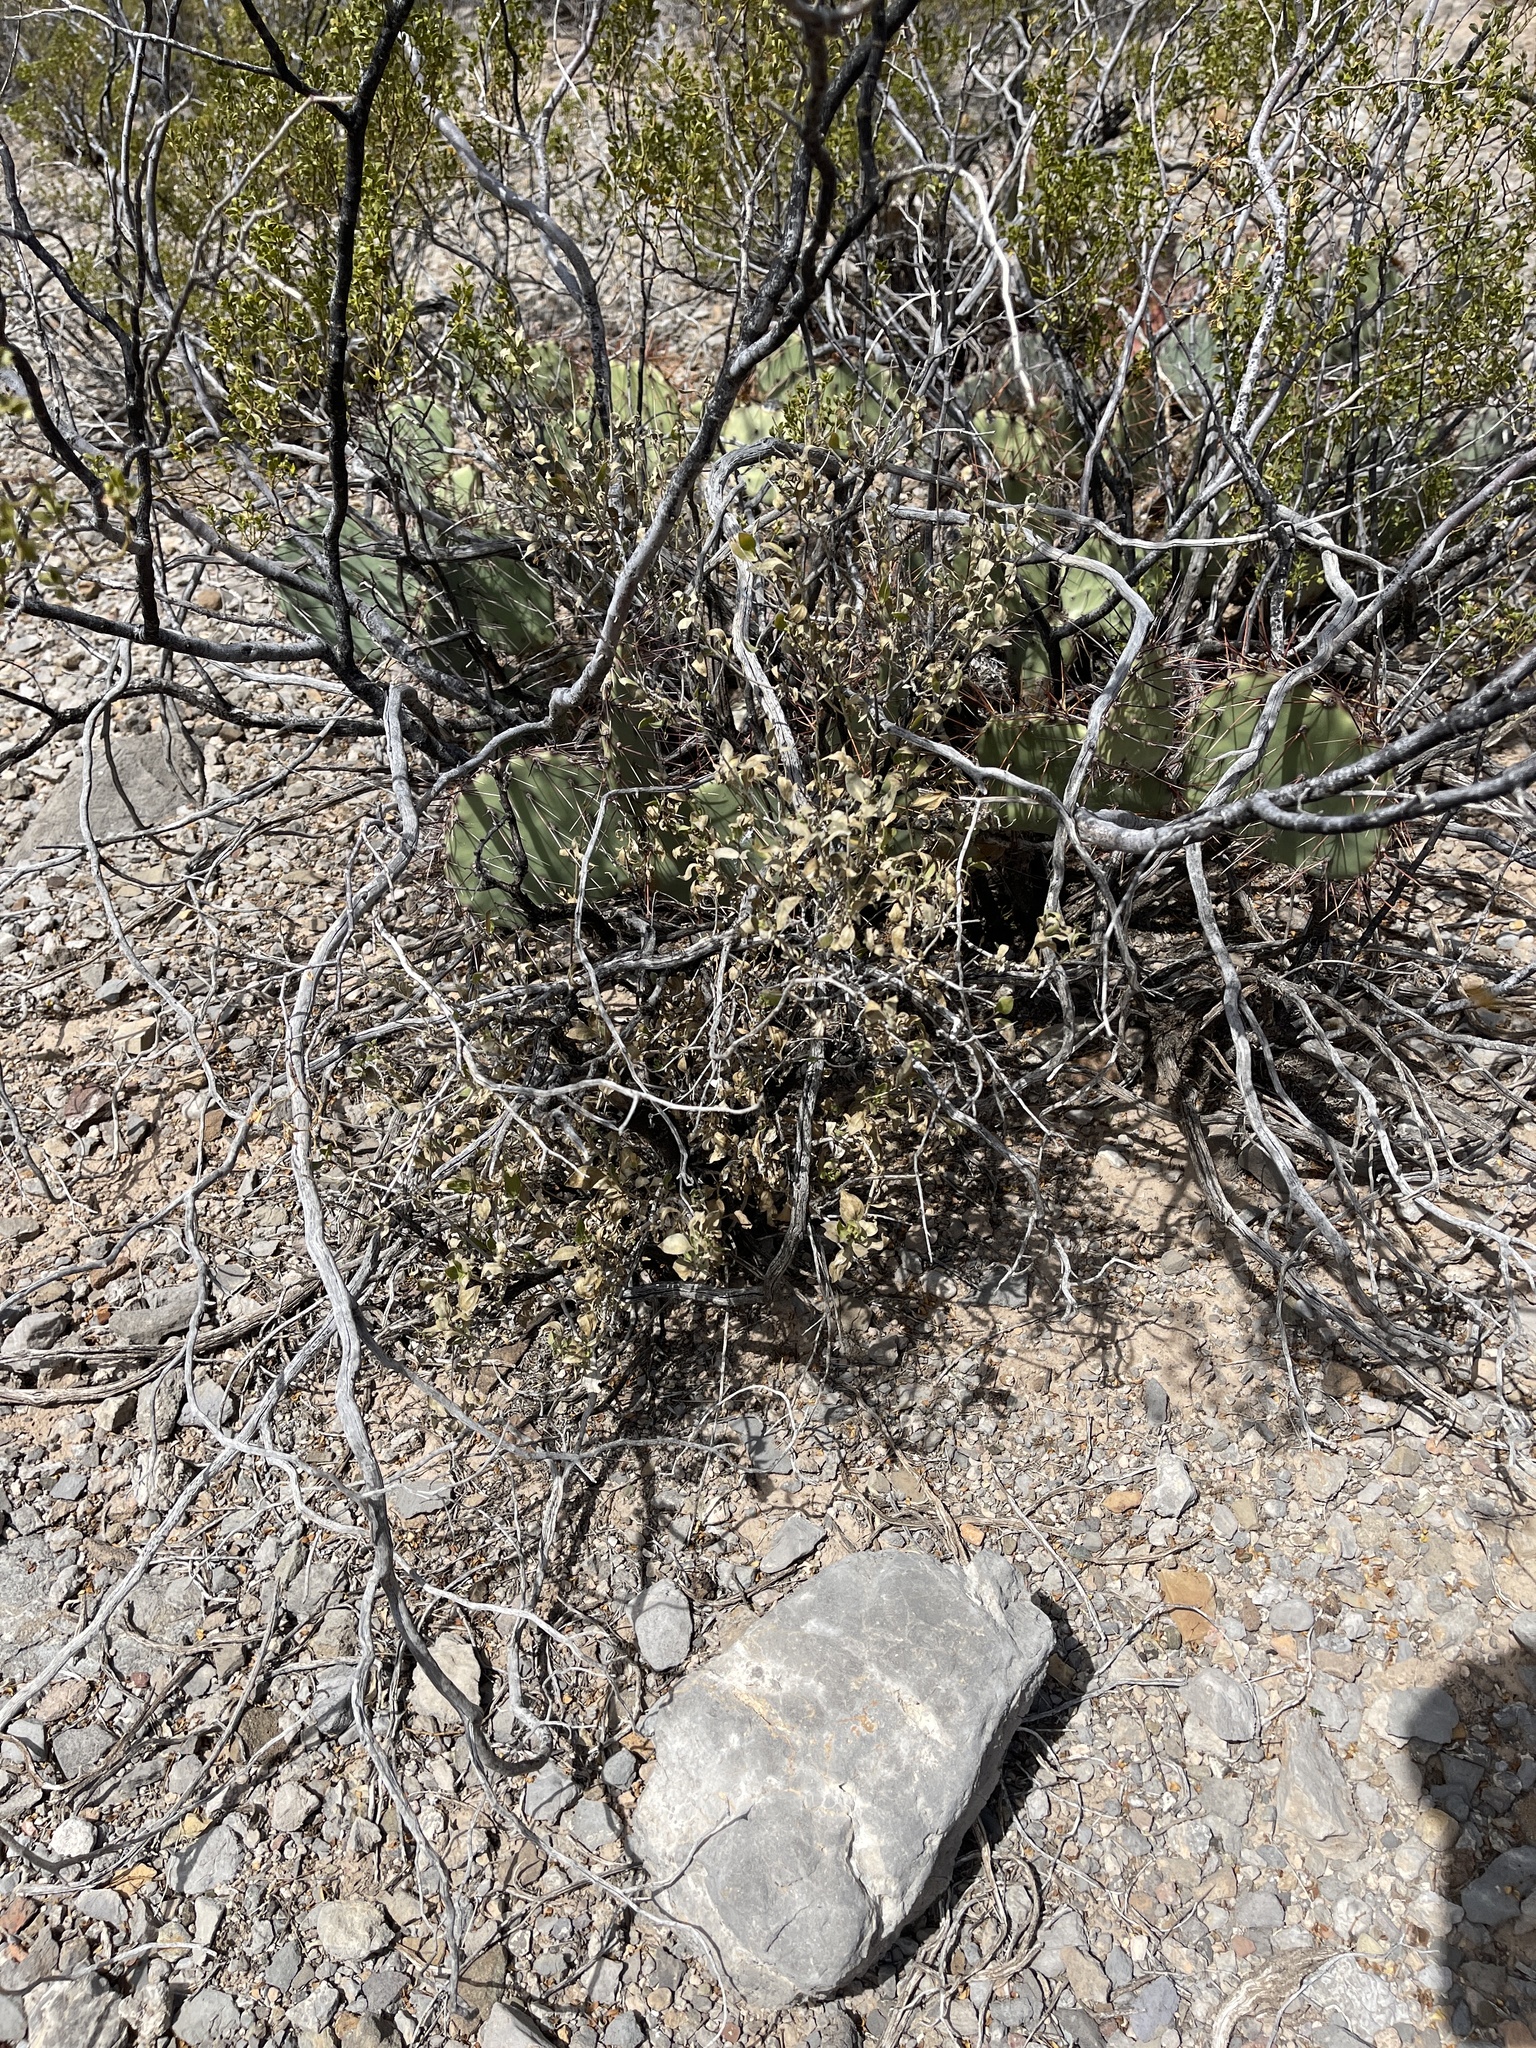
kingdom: Plantae
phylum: Tracheophyta
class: Magnoliopsida
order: Asterales
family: Asteraceae
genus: Flourensia
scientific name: Flourensia cernua
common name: Varnishbush
